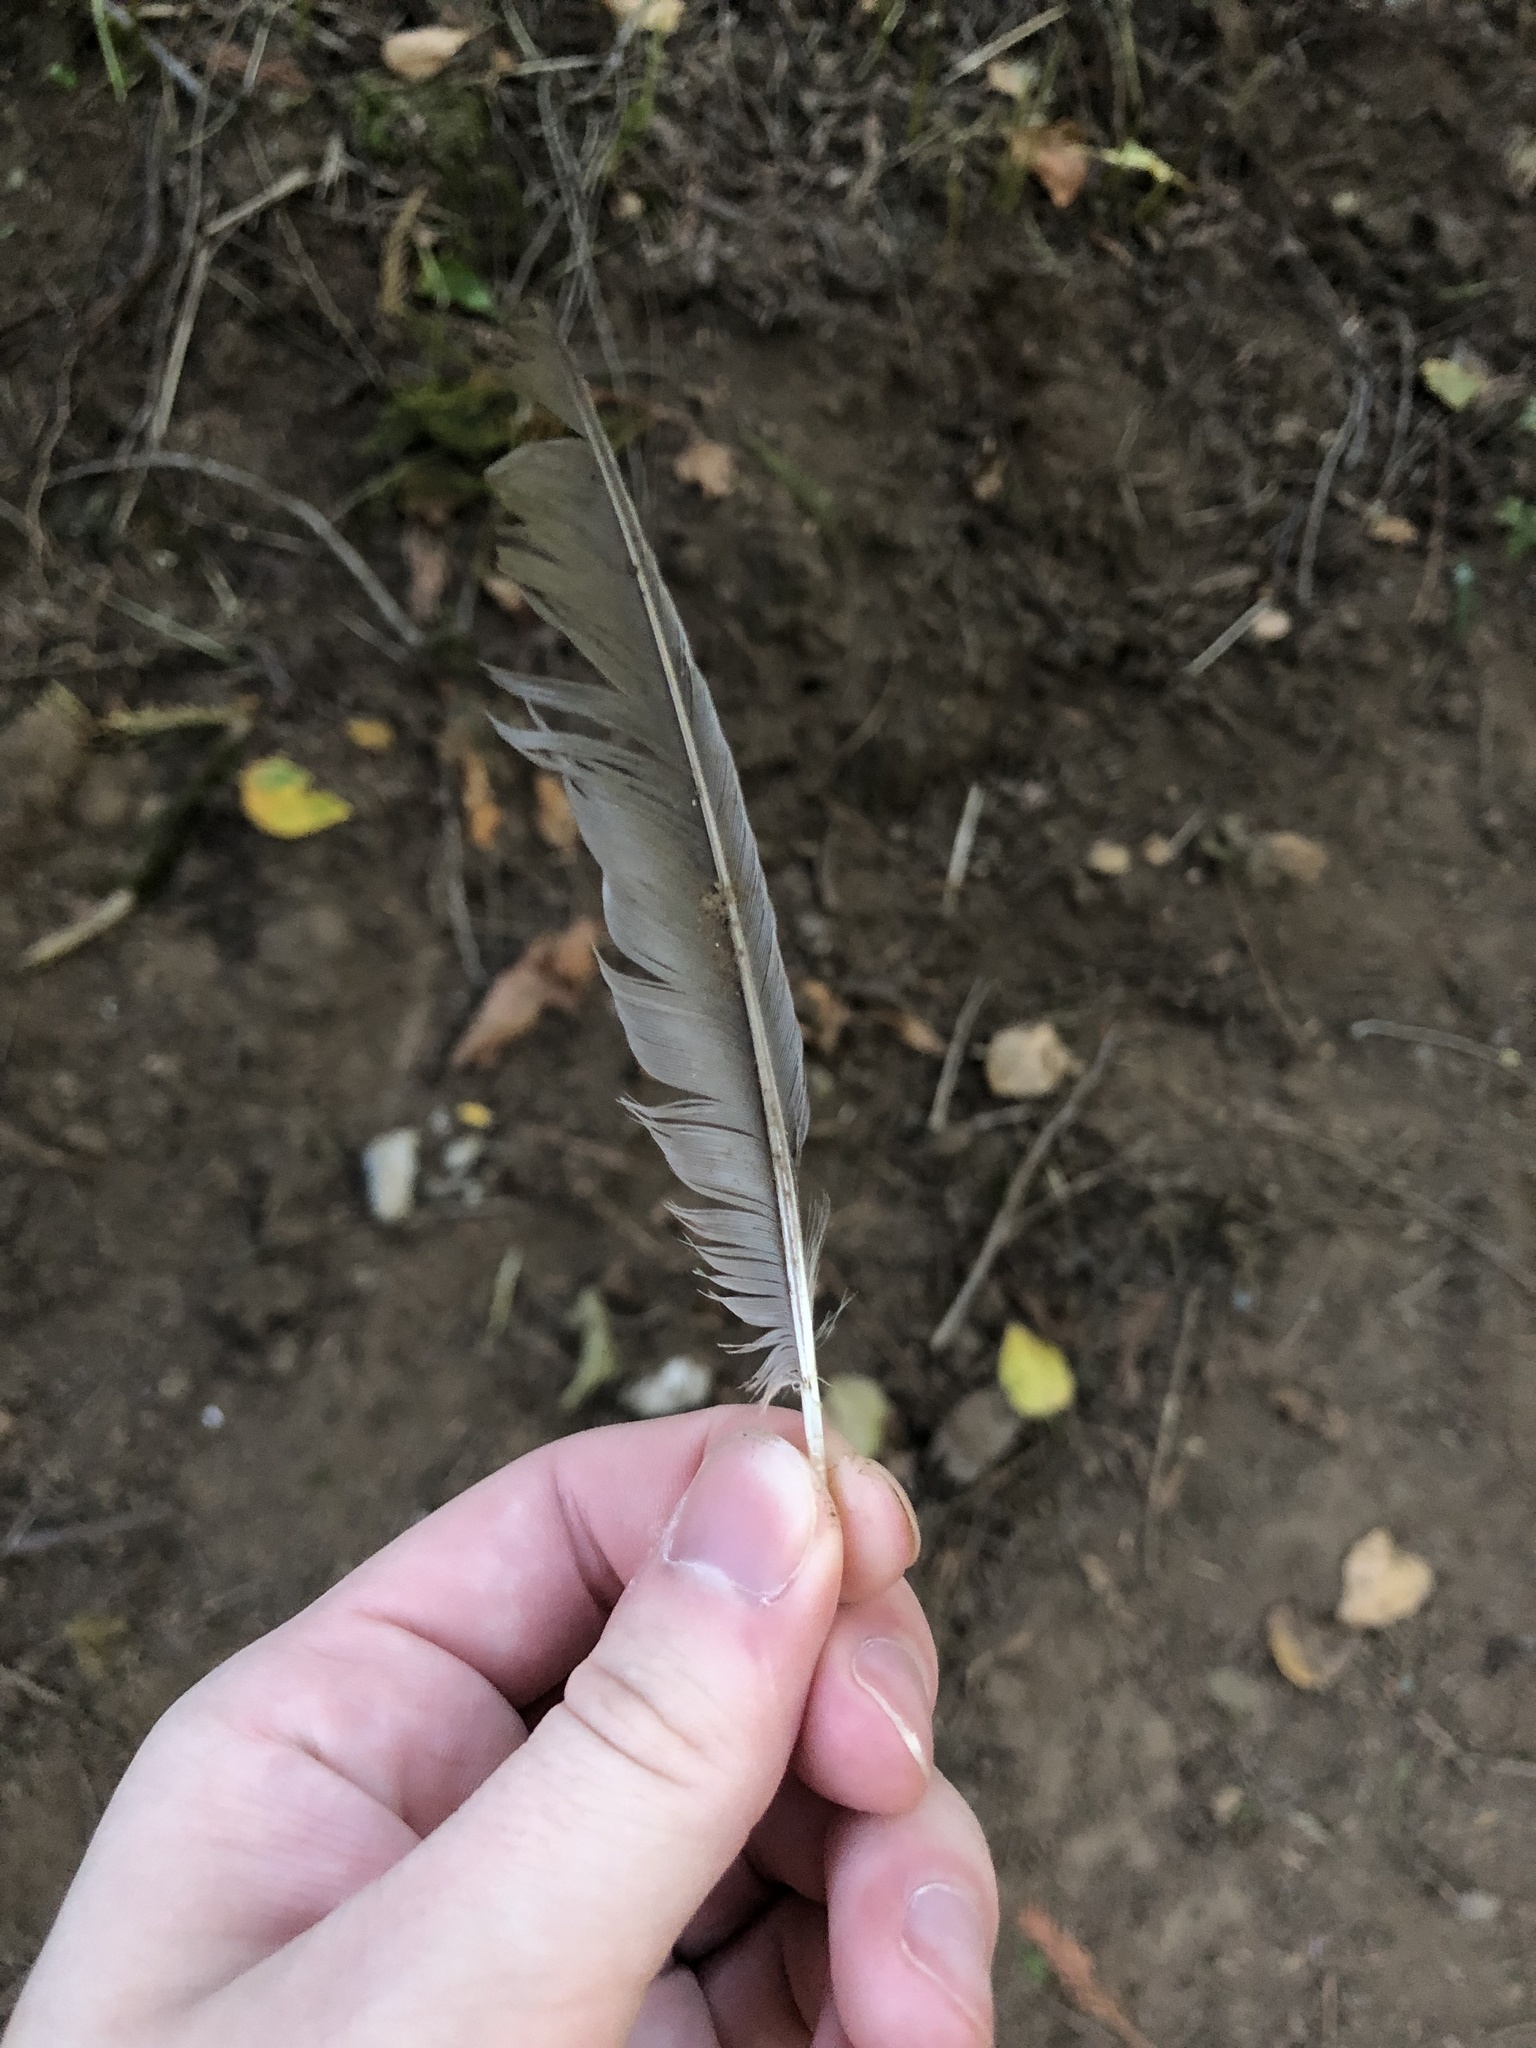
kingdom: Animalia
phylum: Chordata
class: Aves
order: Passeriformes
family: Turdidae
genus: Turdus
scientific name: Turdus migratorius
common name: American robin
